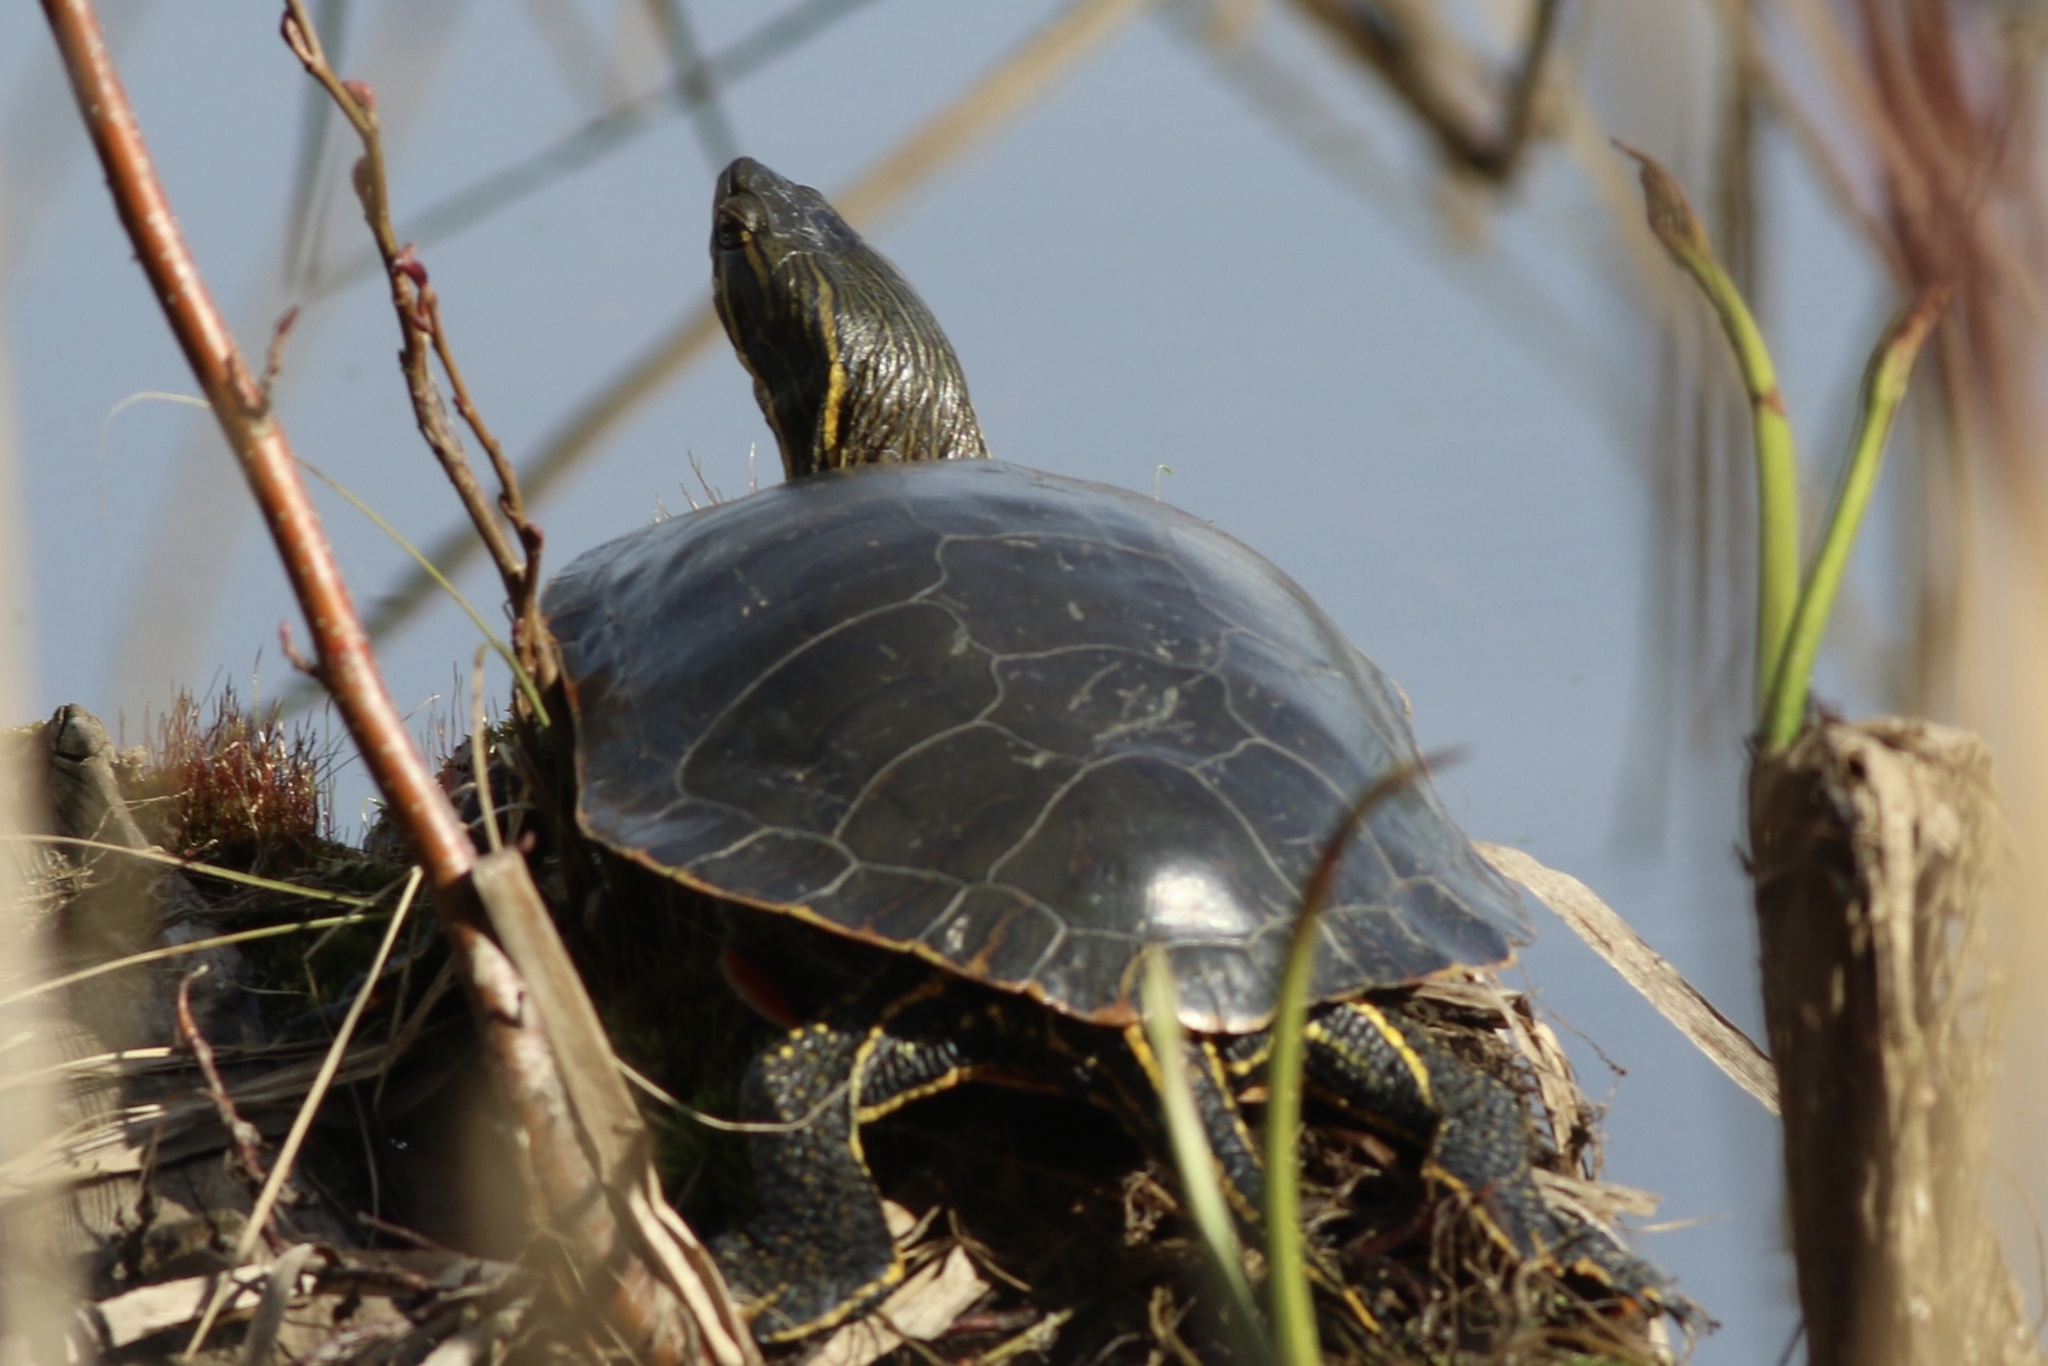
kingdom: Animalia
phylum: Chordata
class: Testudines
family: Emydidae
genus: Chrysemys
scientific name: Chrysemys picta
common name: Painted turtle
